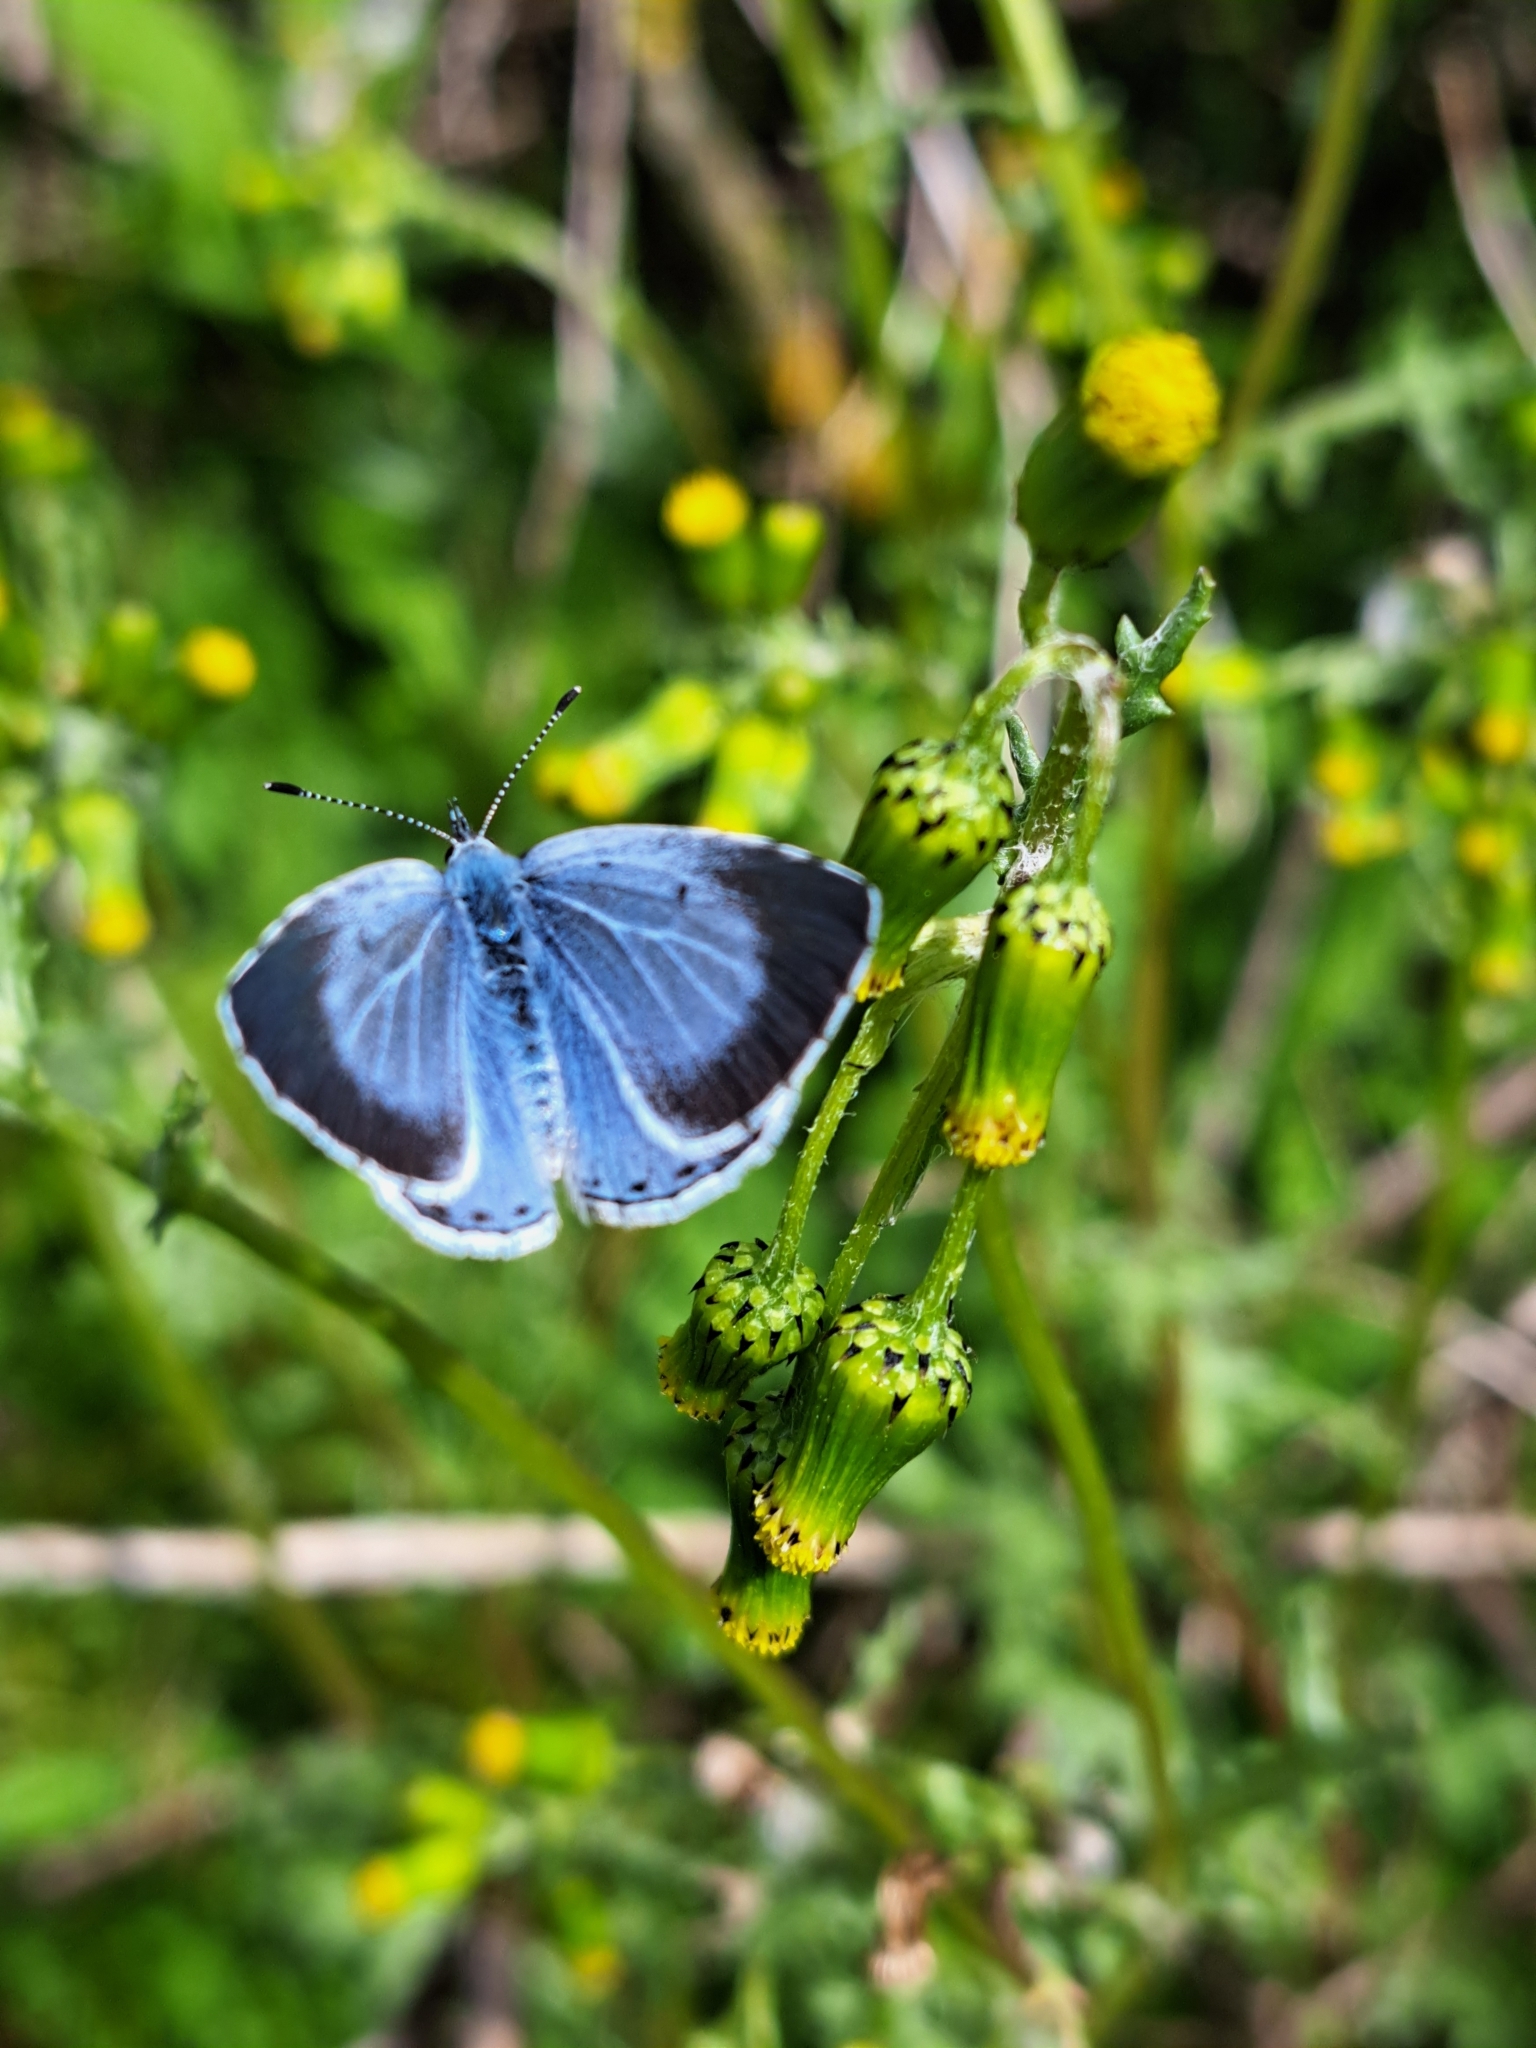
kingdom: Animalia
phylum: Arthropoda
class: Insecta
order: Lepidoptera
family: Lycaenidae
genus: Celastrina
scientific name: Celastrina argiolus
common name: Holly blue
